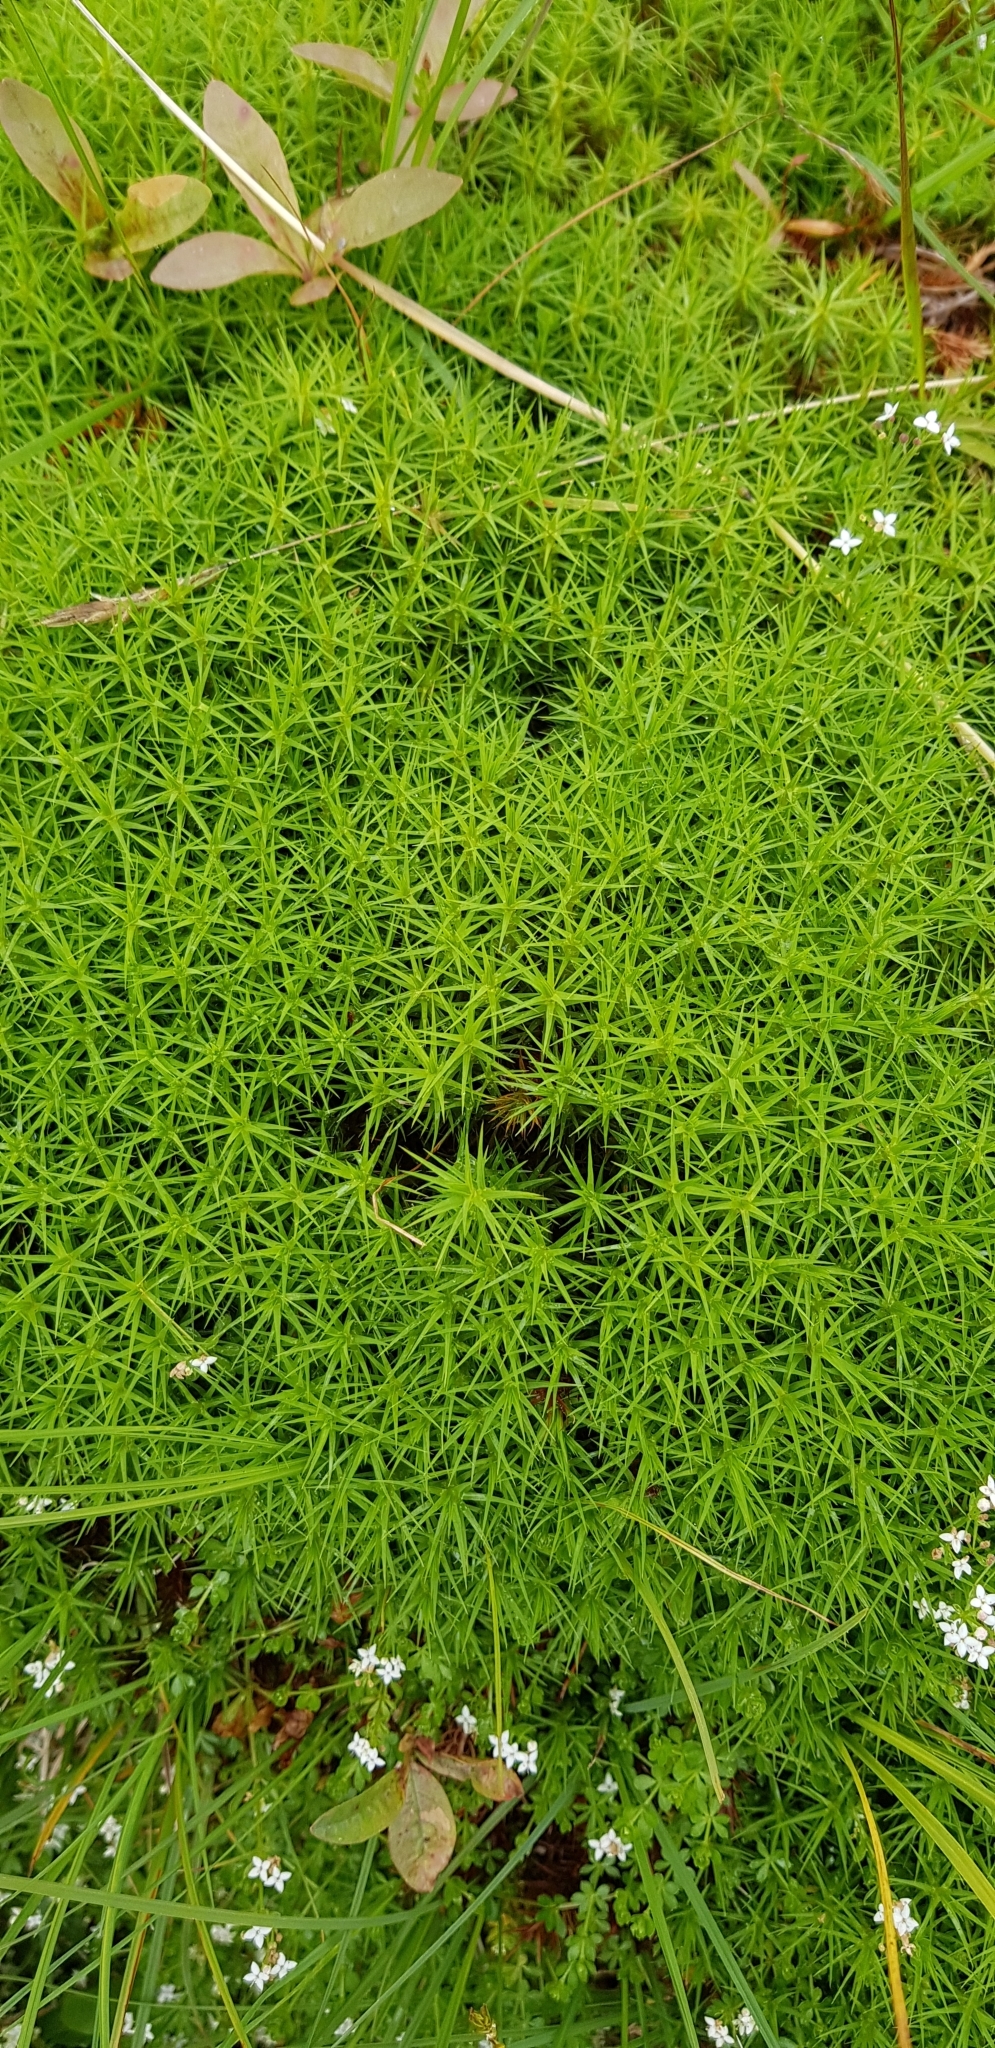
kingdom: Plantae
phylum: Bryophyta
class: Polytrichopsida
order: Polytrichales
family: Polytrichaceae
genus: Polytrichum
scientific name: Polytrichum commune
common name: Common haircap
